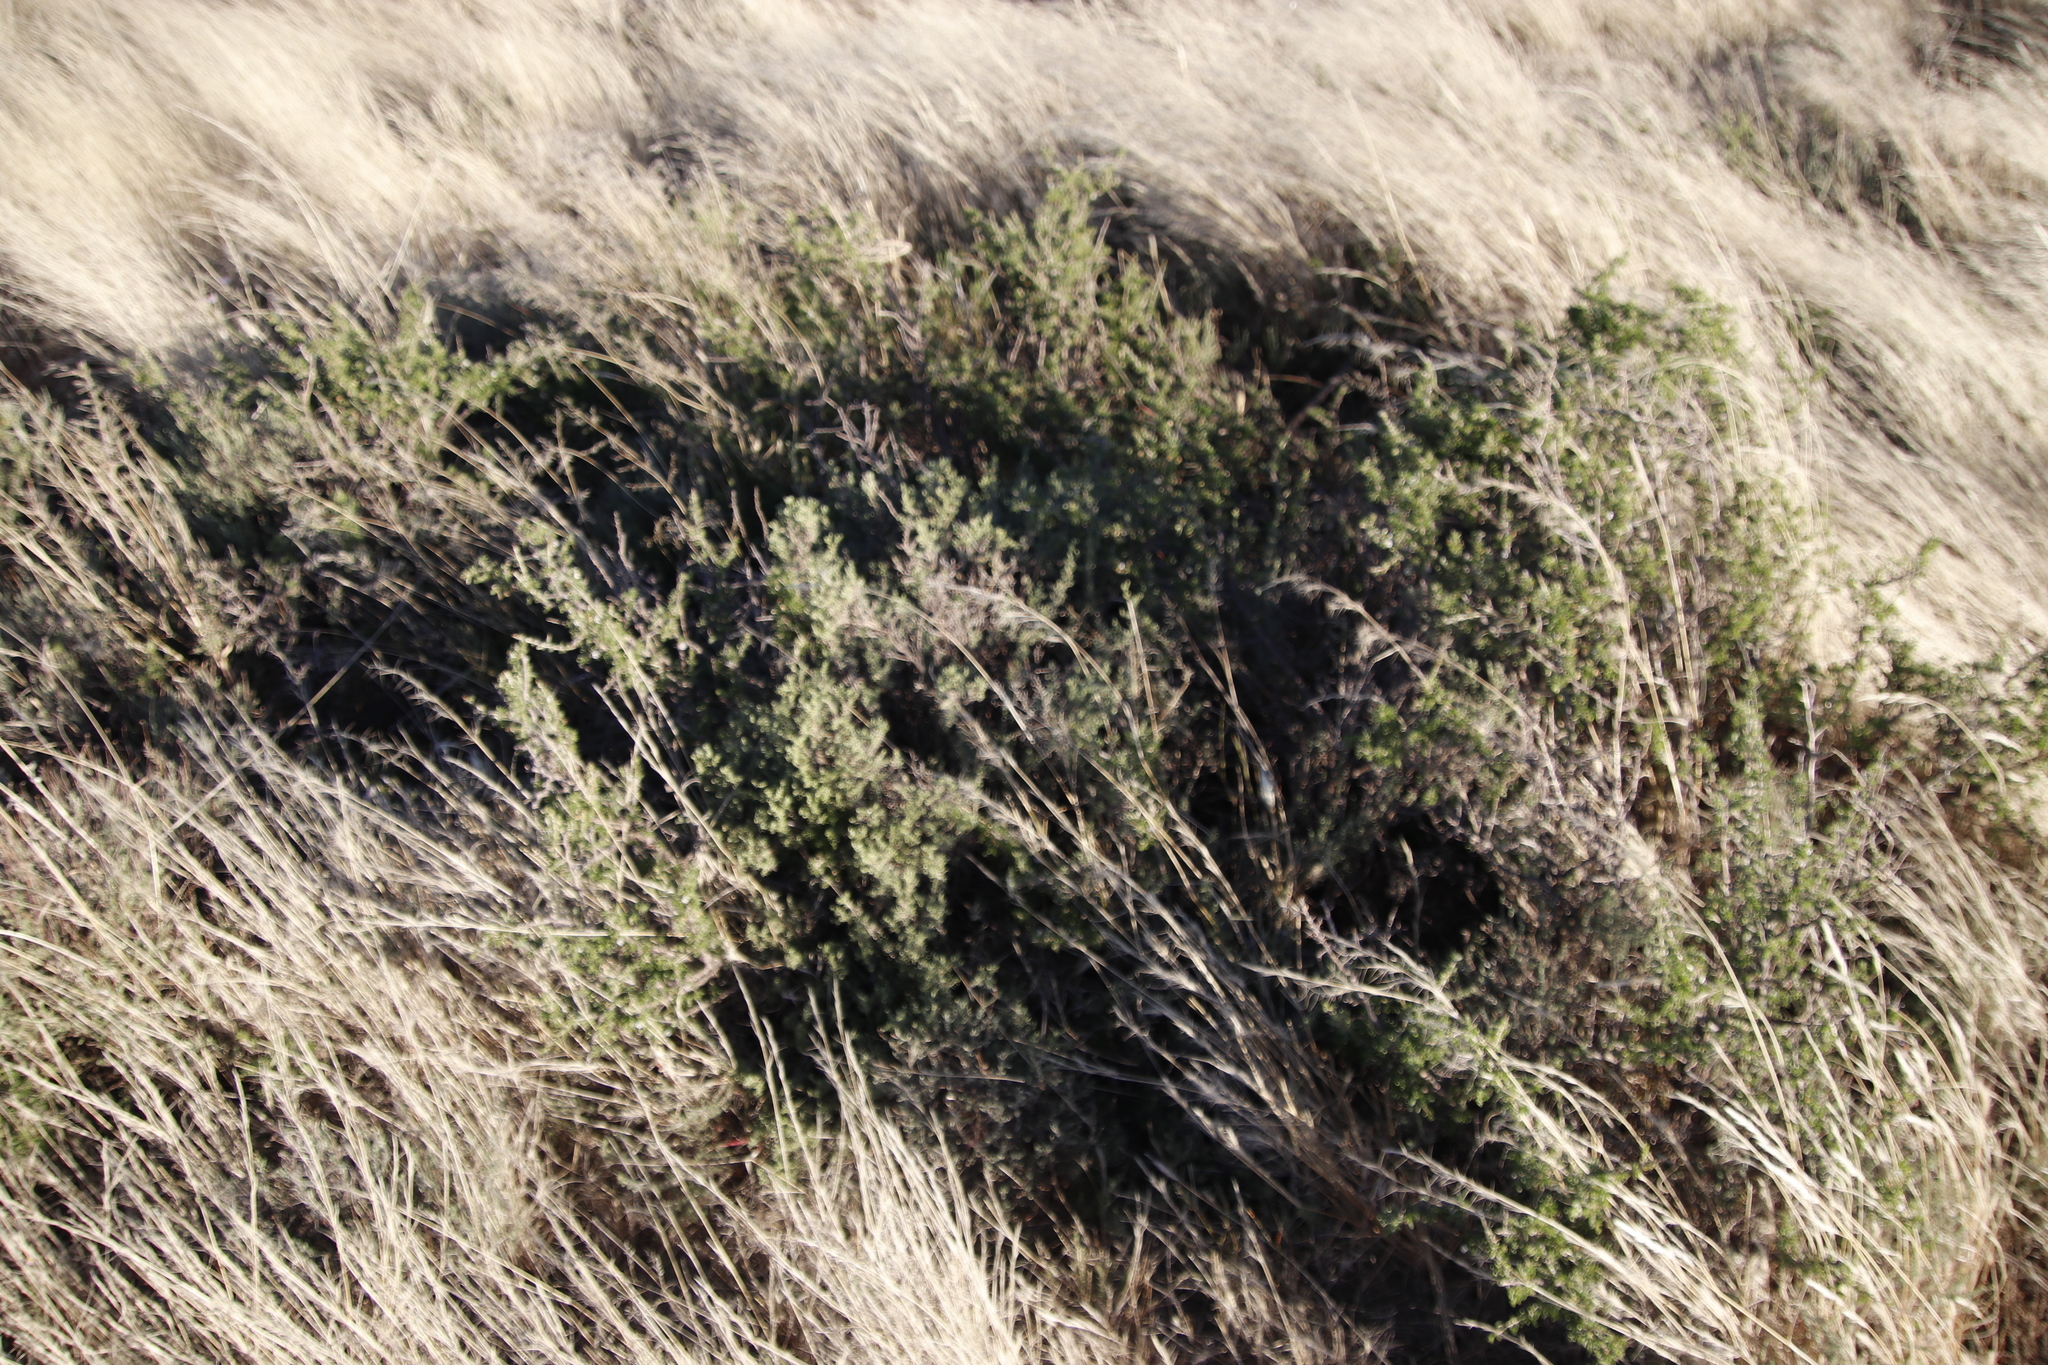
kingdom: Plantae
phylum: Tracheophyta
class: Magnoliopsida
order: Solanales
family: Solanaceae
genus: Lycium
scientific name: Lycium horridum
